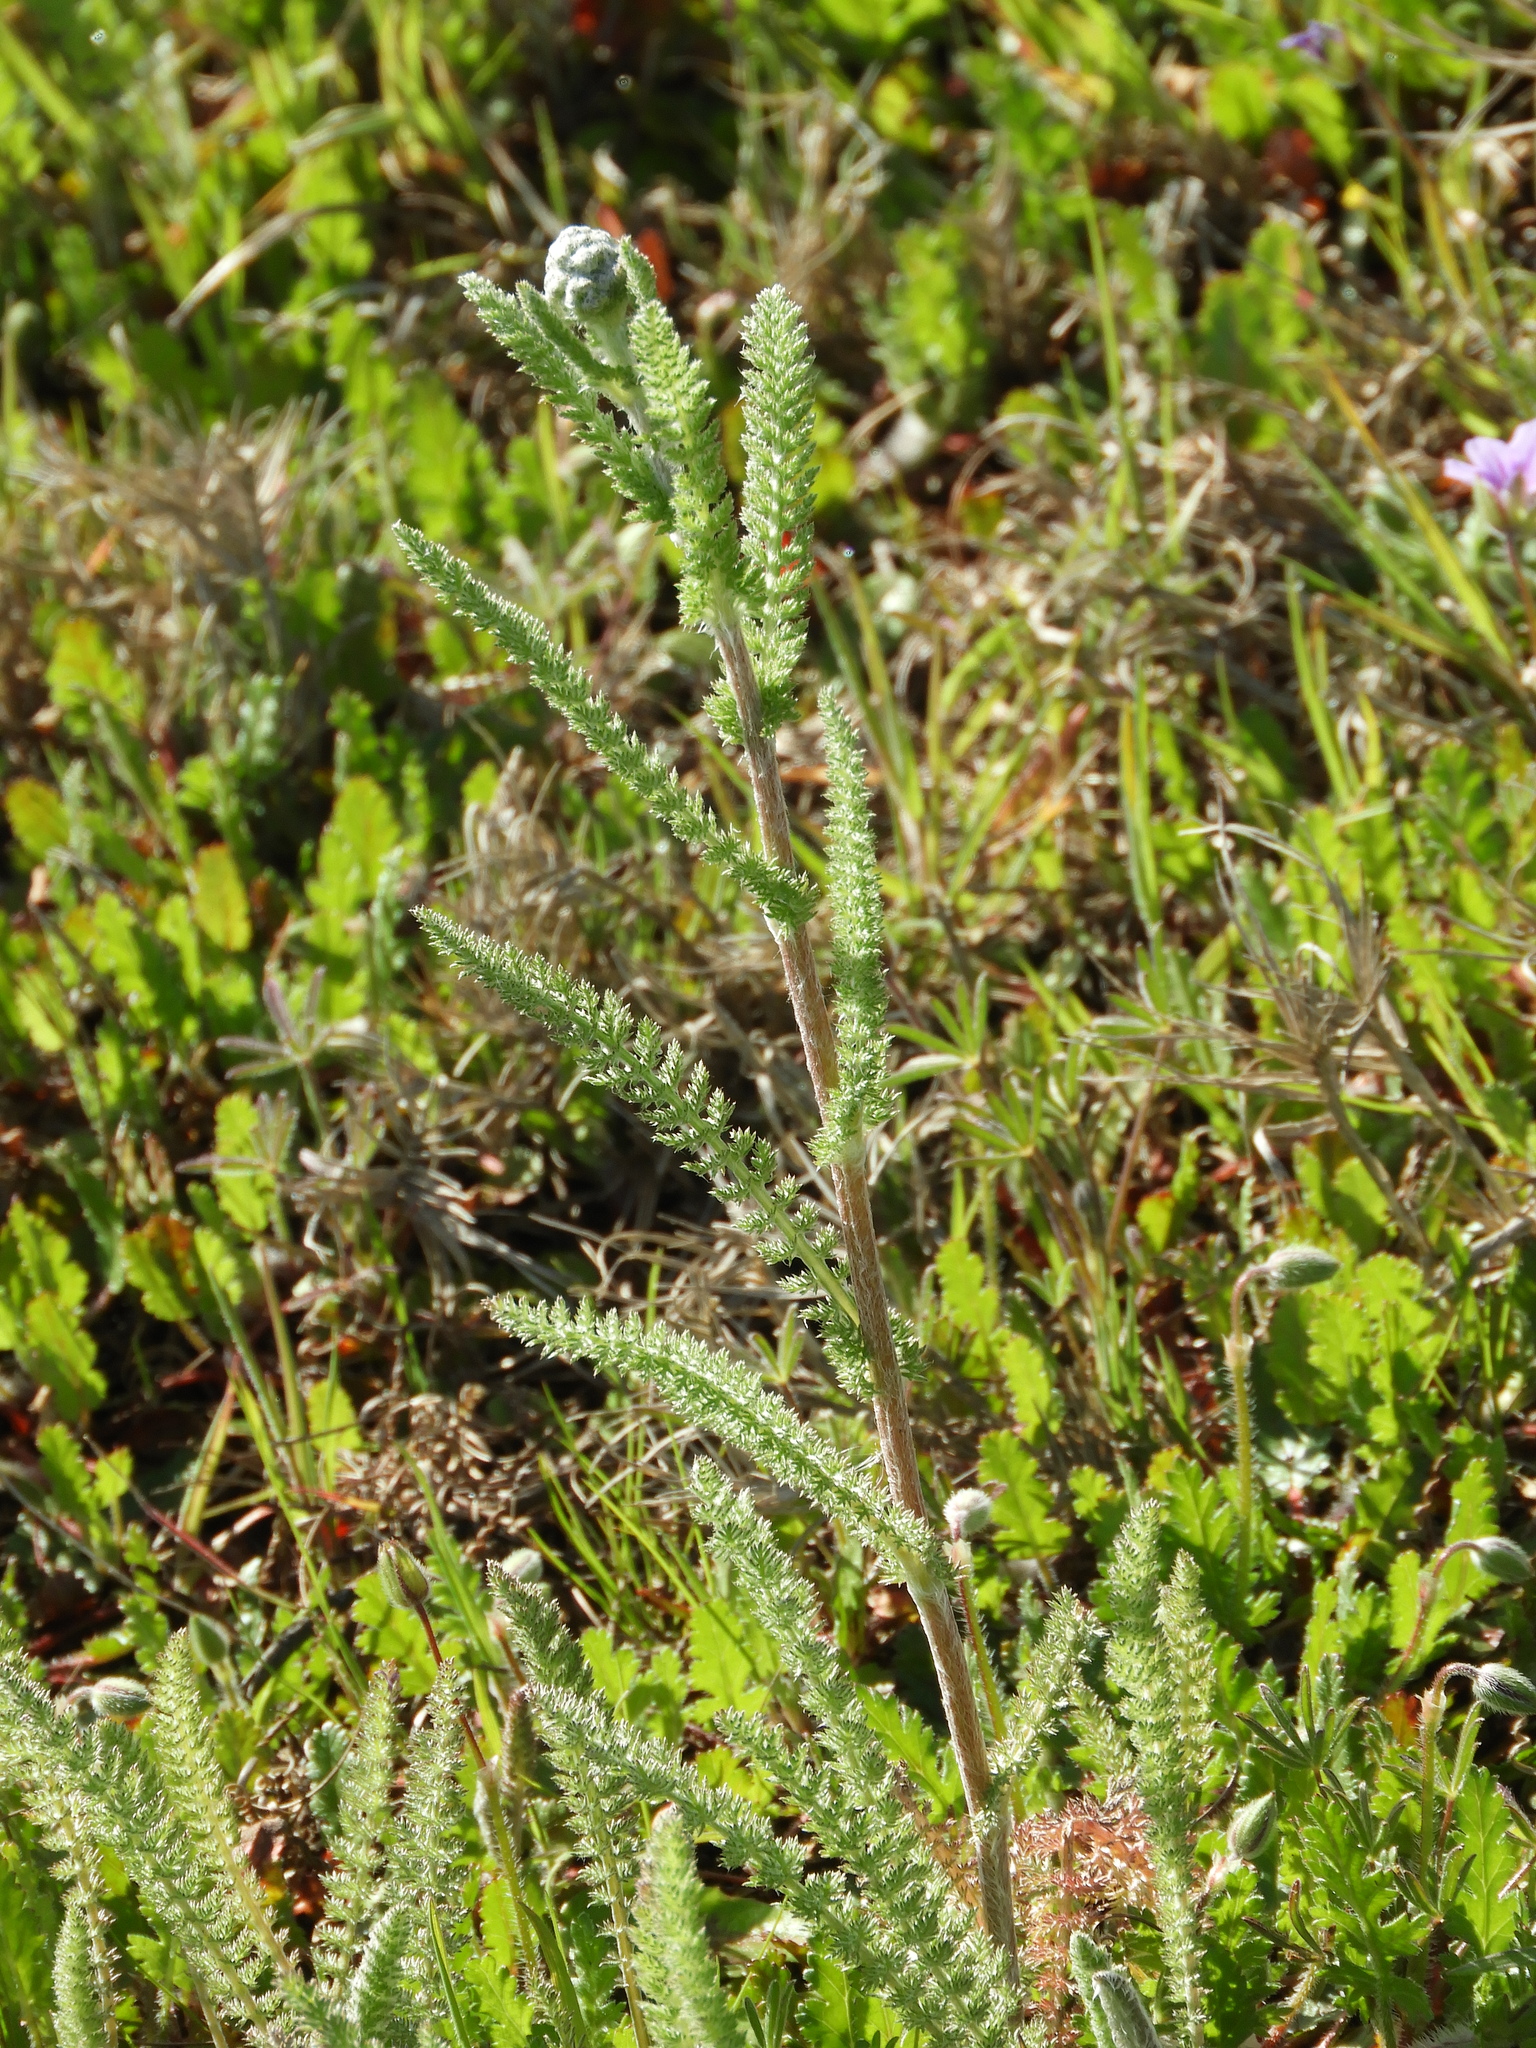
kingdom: Plantae
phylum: Tracheophyta
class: Magnoliopsida
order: Asterales
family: Asteraceae
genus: Achillea
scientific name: Achillea millefolium
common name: Yarrow
